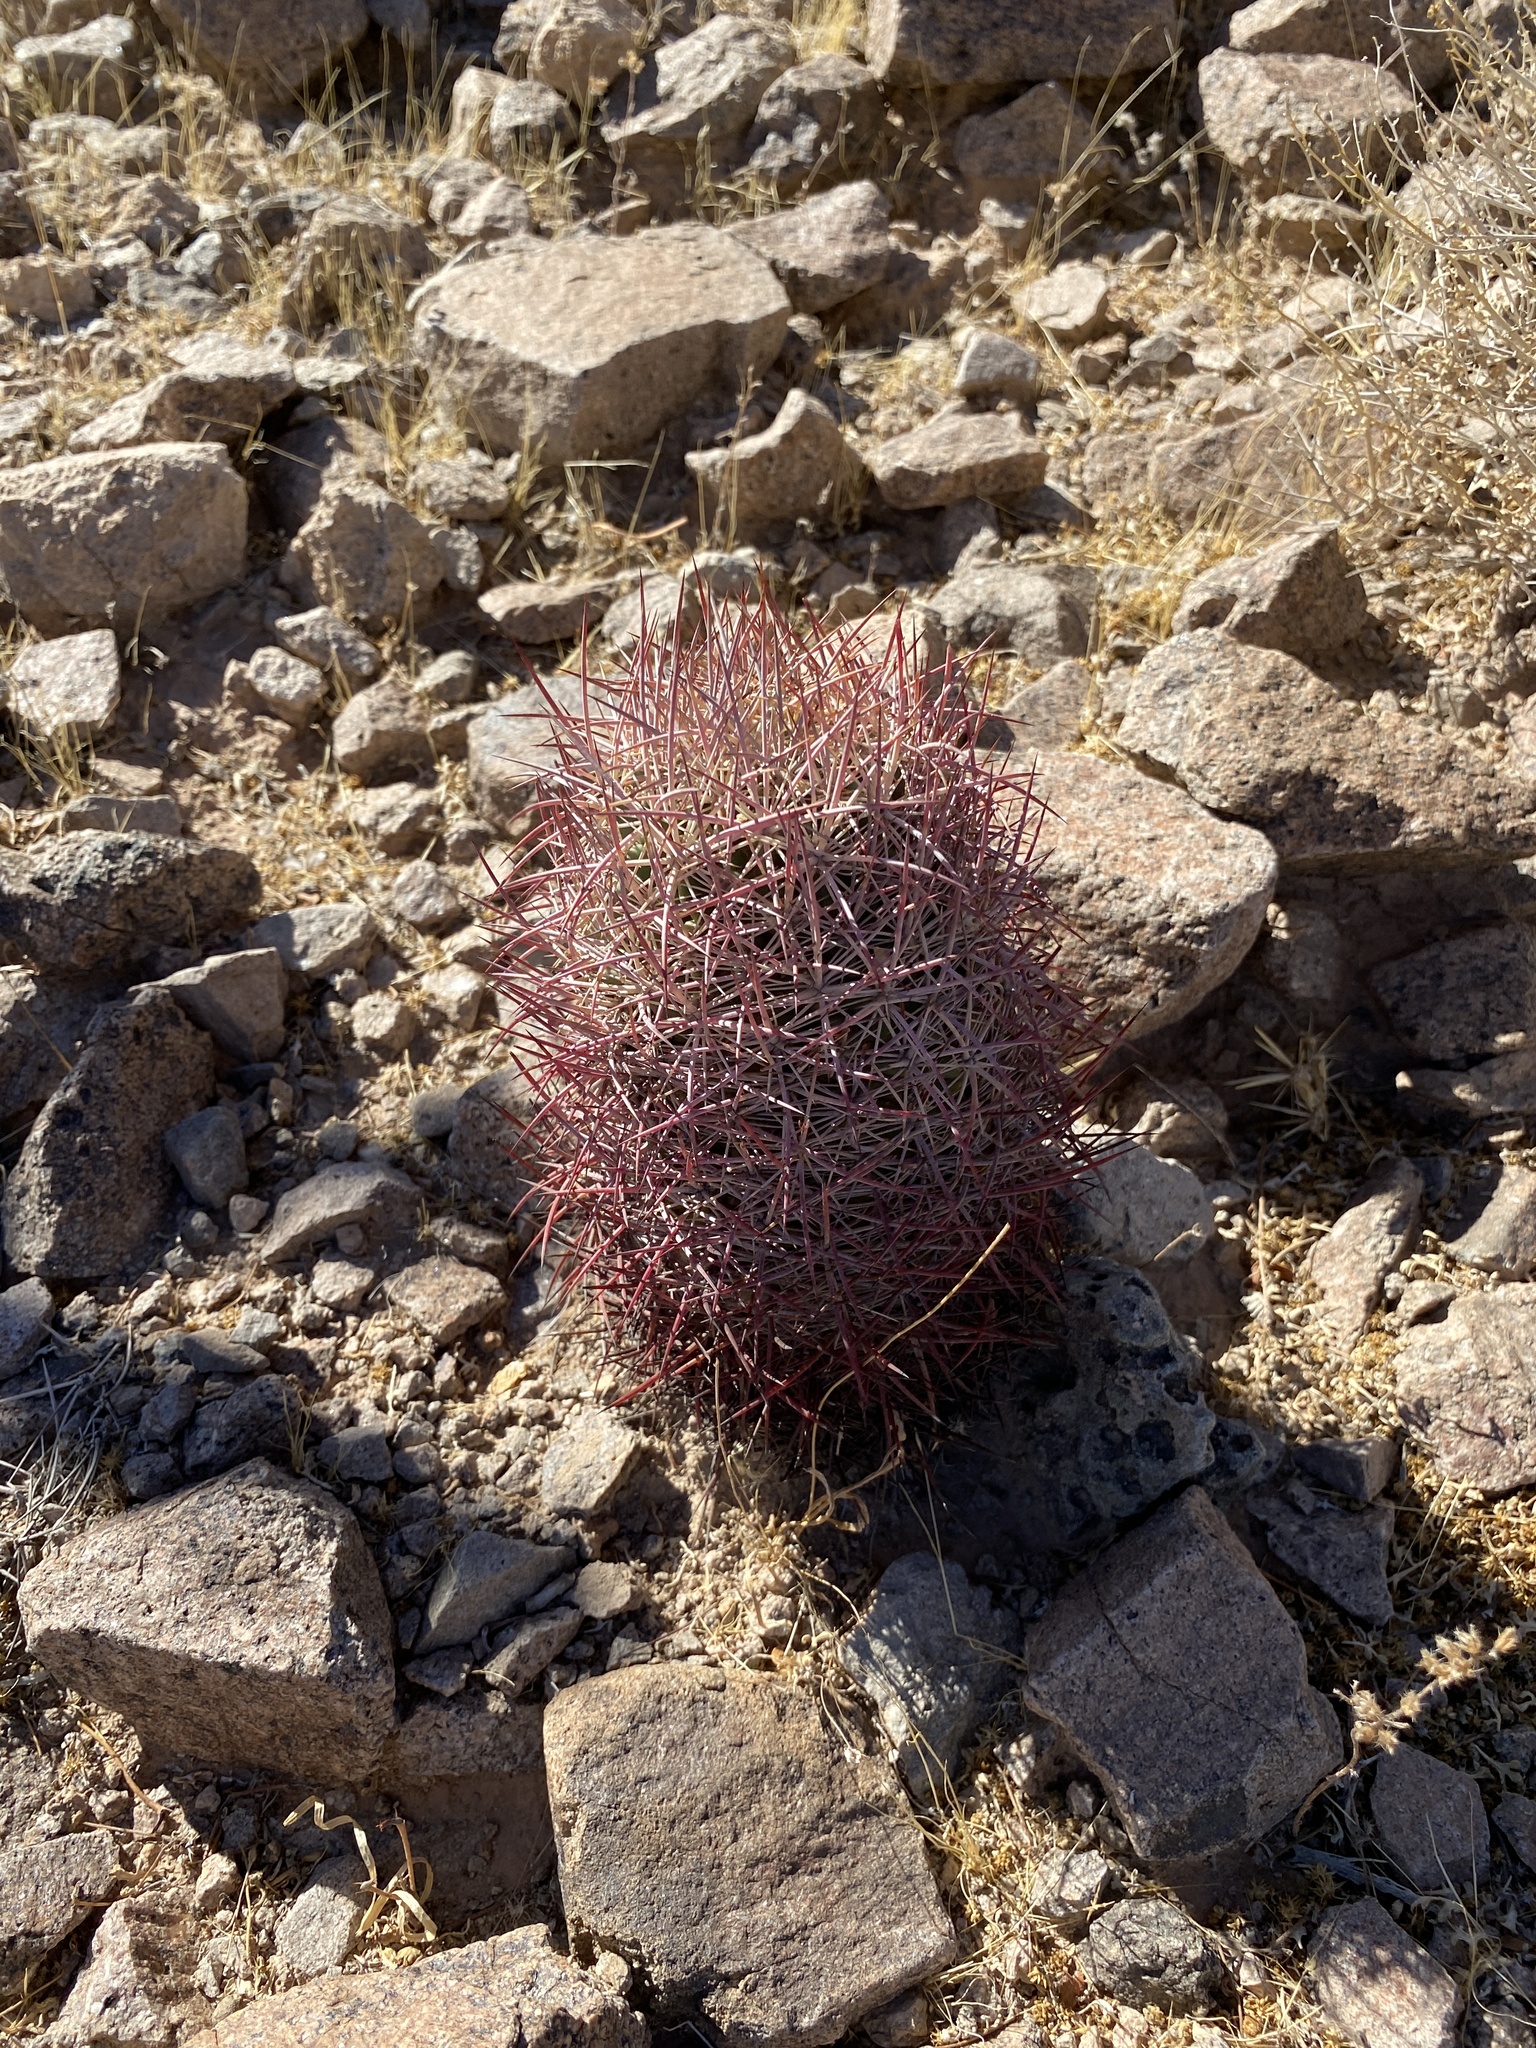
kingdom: Plantae
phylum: Tracheophyta
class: Magnoliopsida
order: Caryophyllales
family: Cactaceae
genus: Sclerocactus
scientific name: Sclerocactus johnsonii
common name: Eight-spine fishhook cactus
